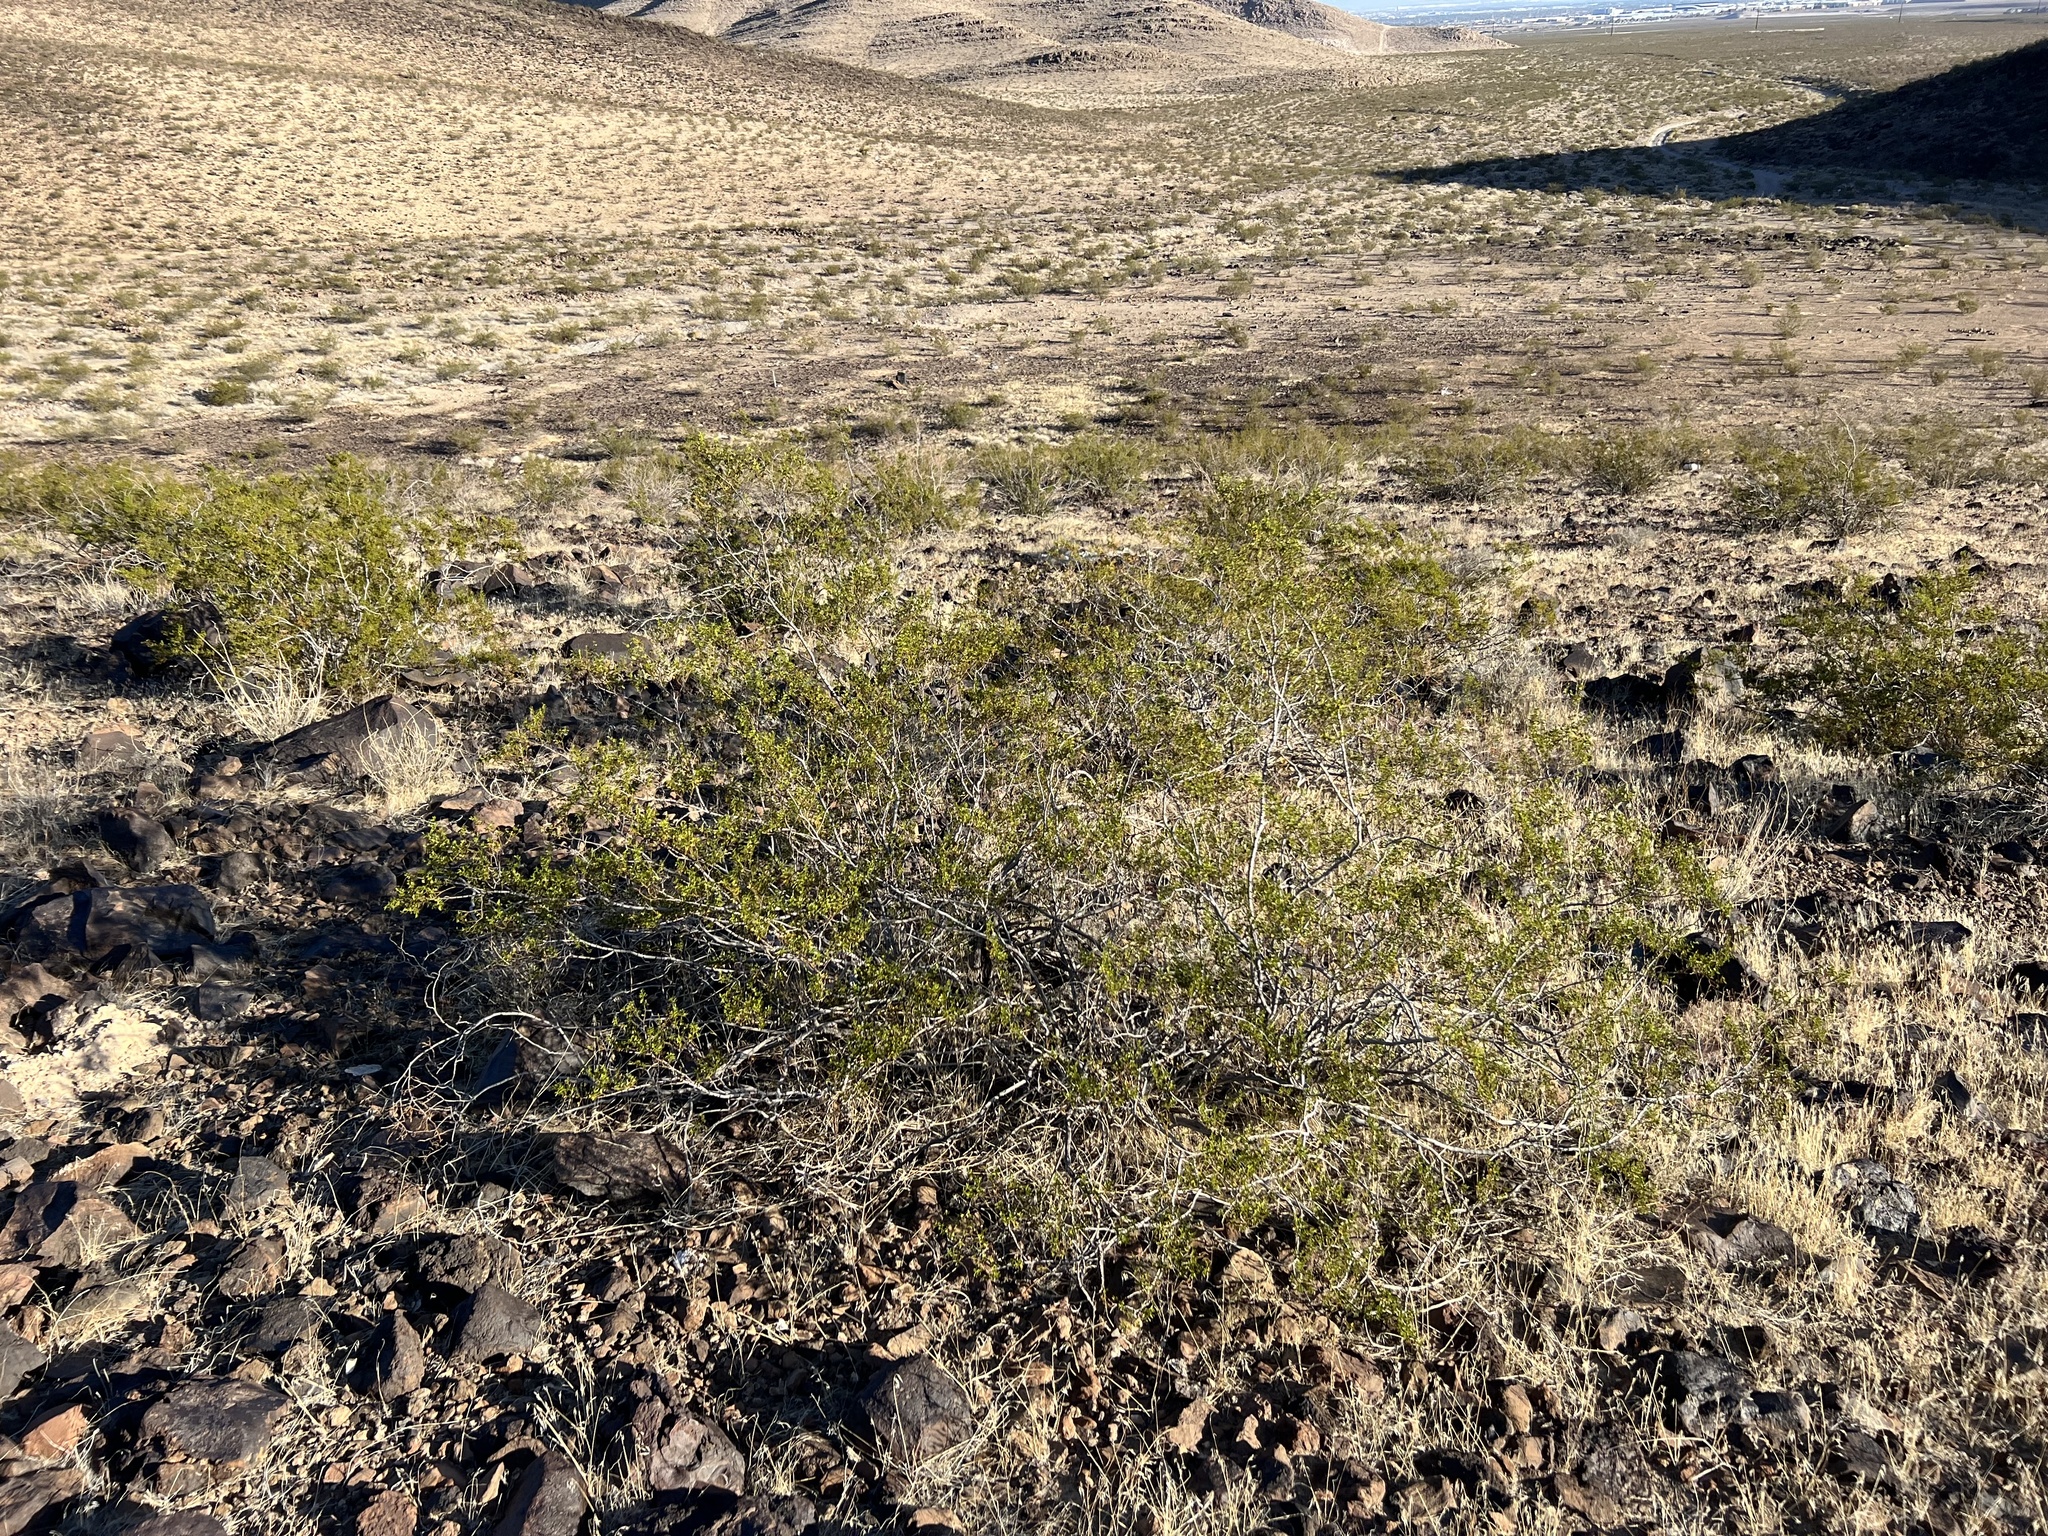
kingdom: Plantae
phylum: Tracheophyta
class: Magnoliopsida
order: Zygophyllales
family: Zygophyllaceae
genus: Larrea
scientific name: Larrea tridentata
